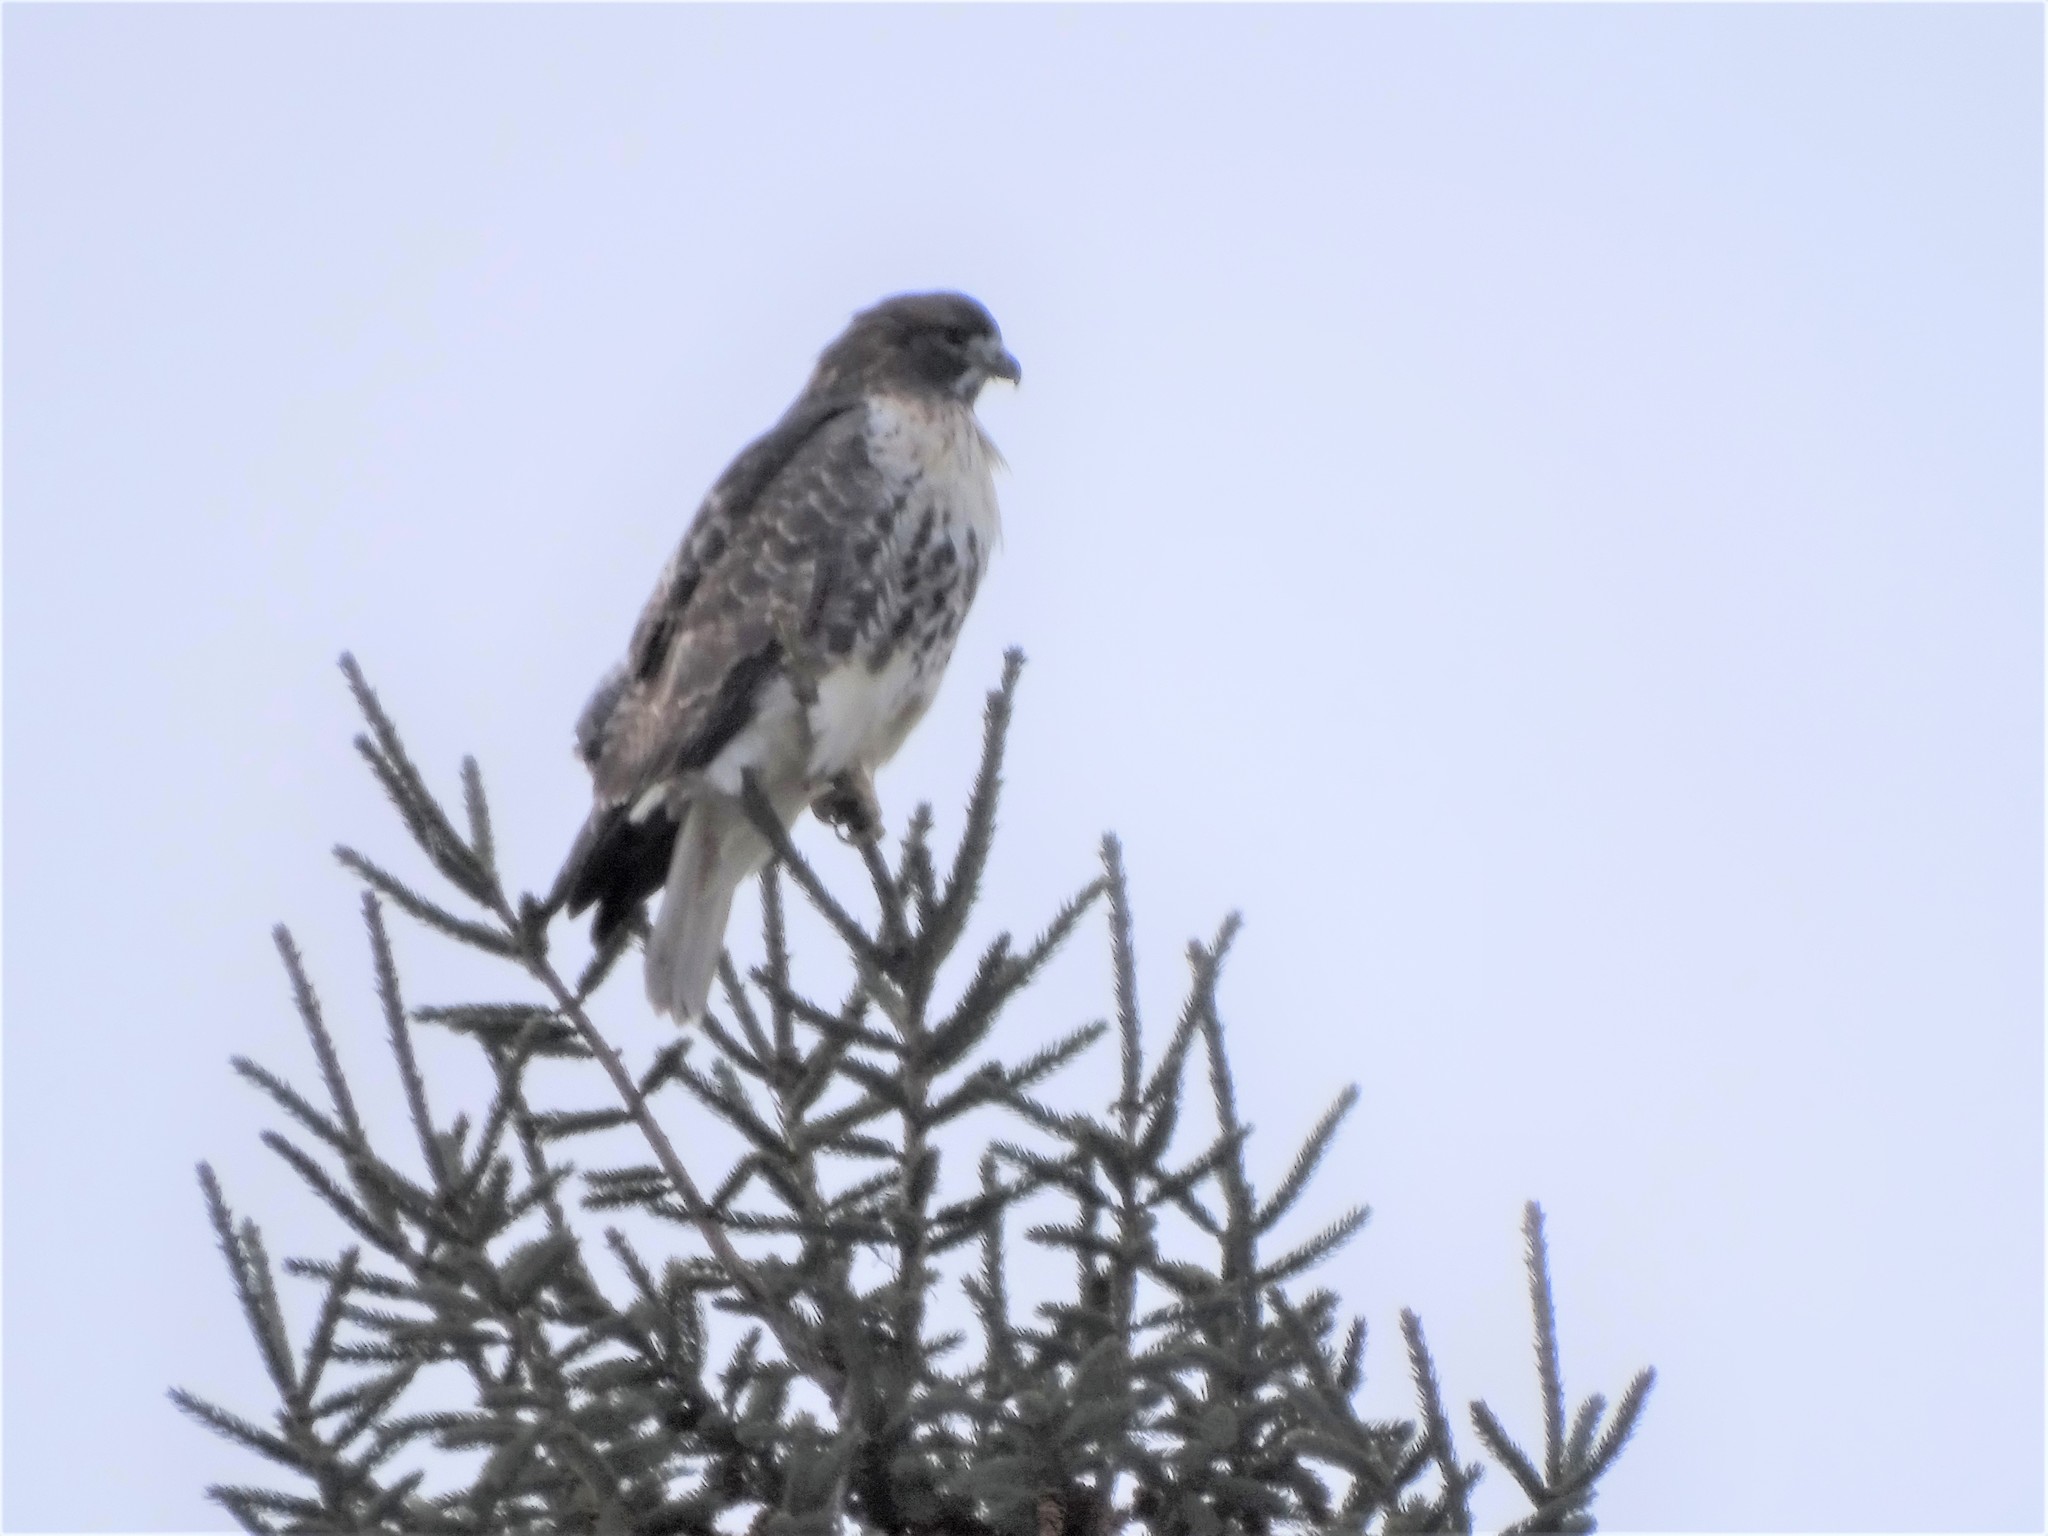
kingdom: Animalia
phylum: Chordata
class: Aves
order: Accipitriformes
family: Accipitridae
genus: Buteo
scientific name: Buteo jamaicensis
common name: Red-tailed hawk
